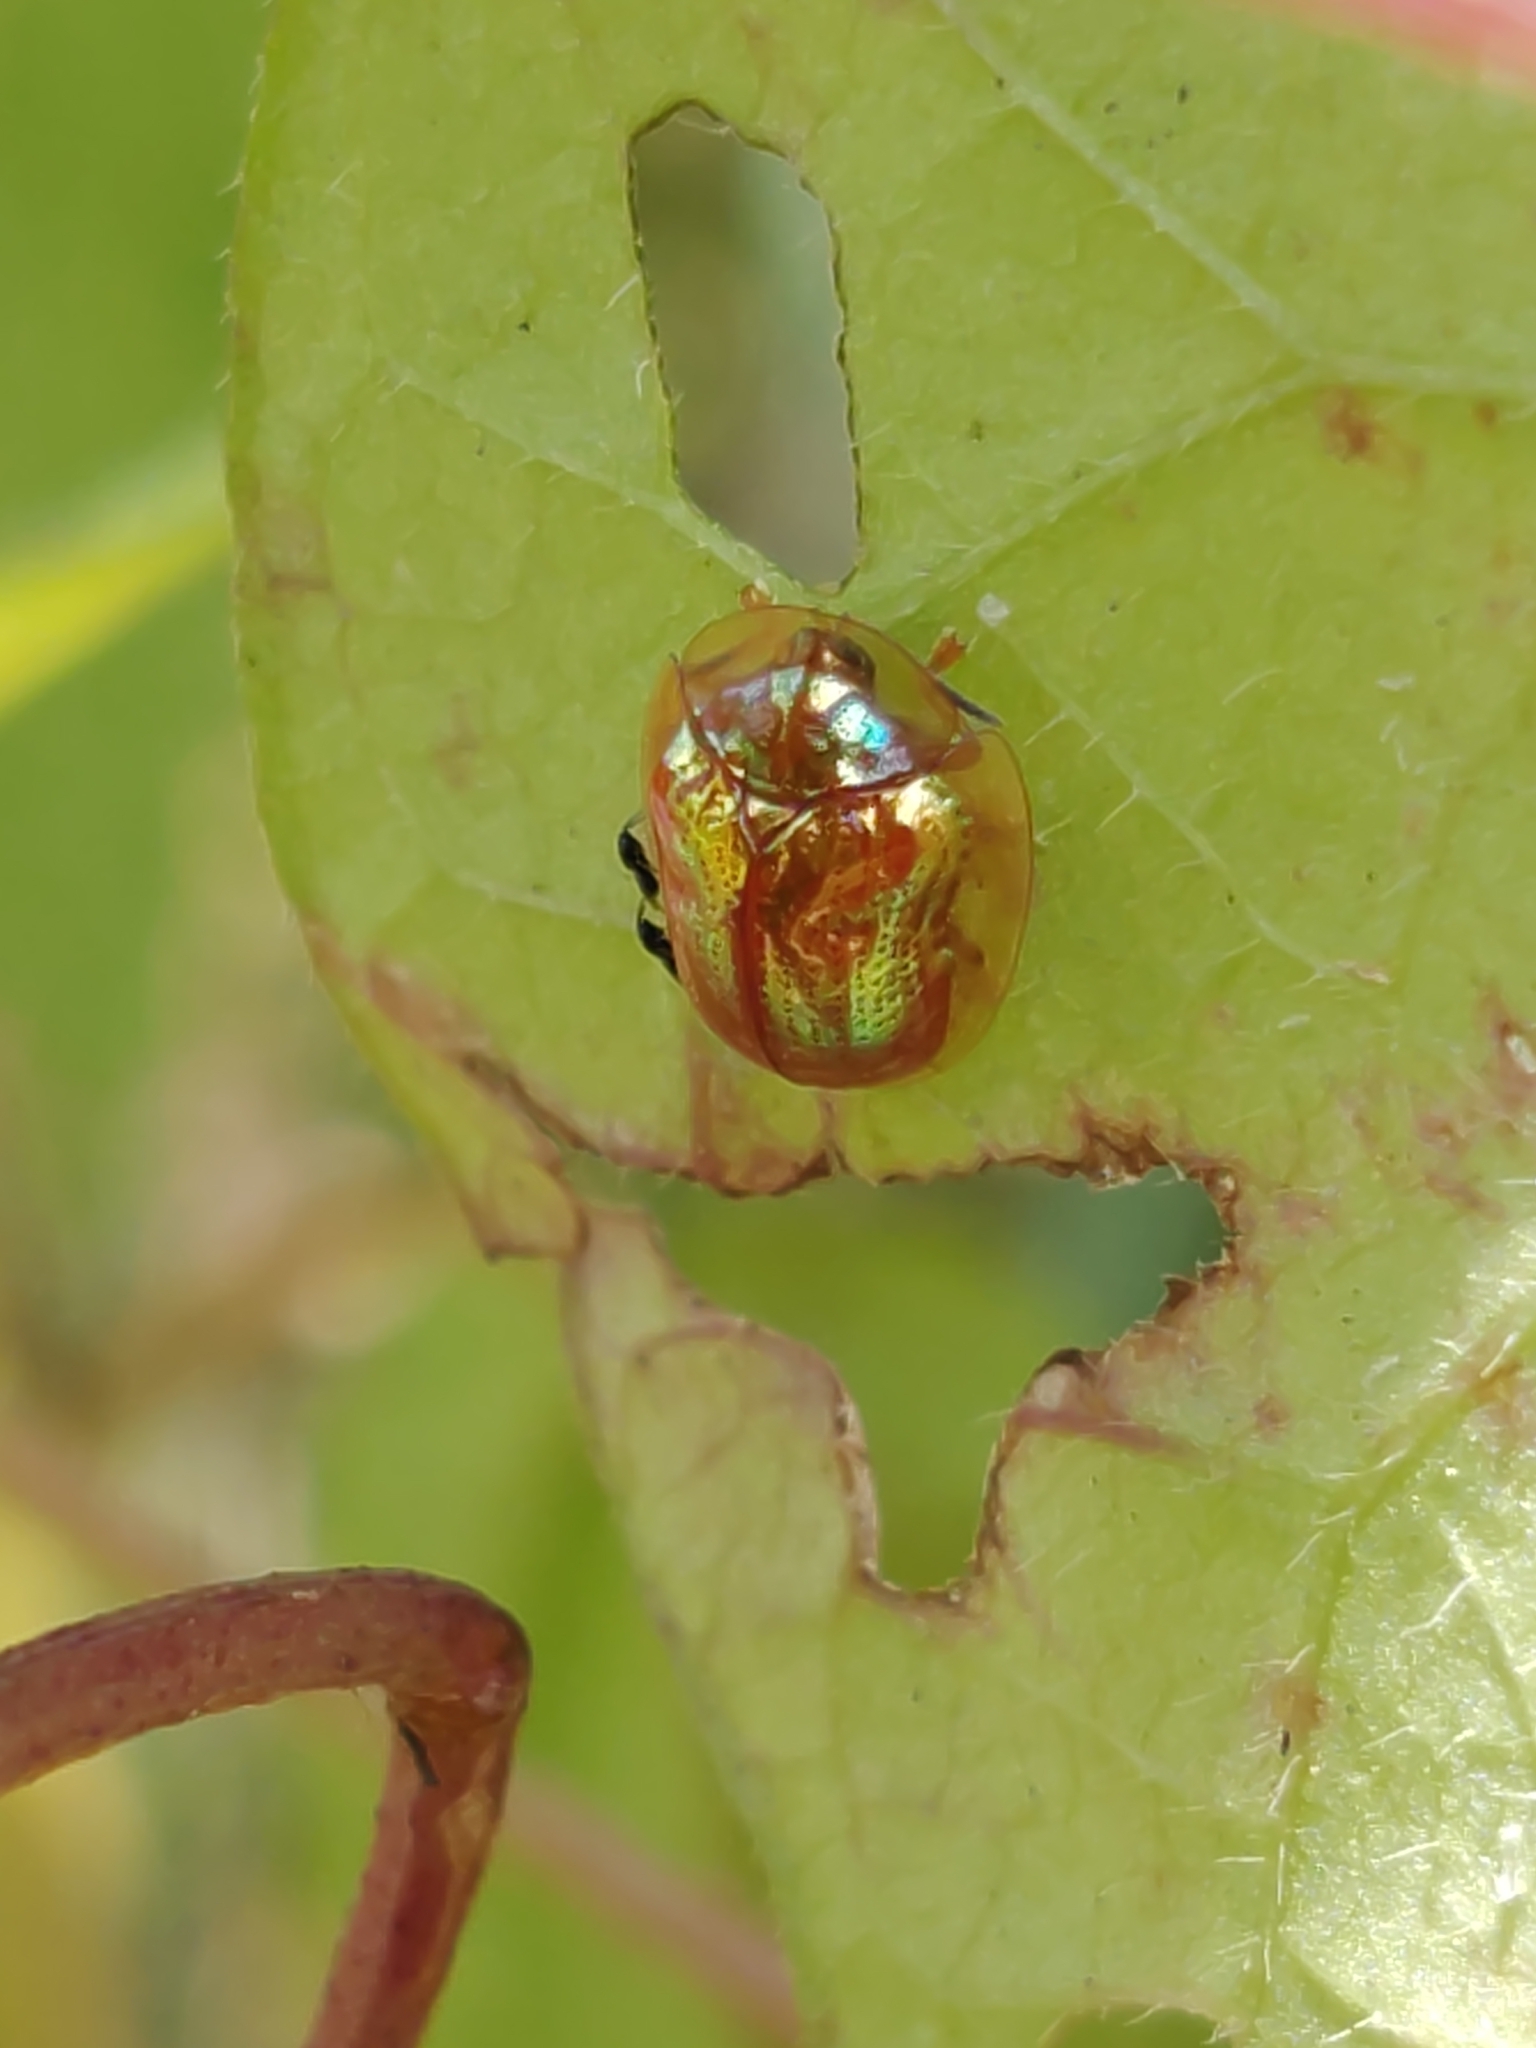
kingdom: Animalia
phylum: Arthropoda
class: Insecta
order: Coleoptera
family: Chrysomelidae
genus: Charidotella
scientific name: Charidotella sexpunctata
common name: Golden tortoise beetle
